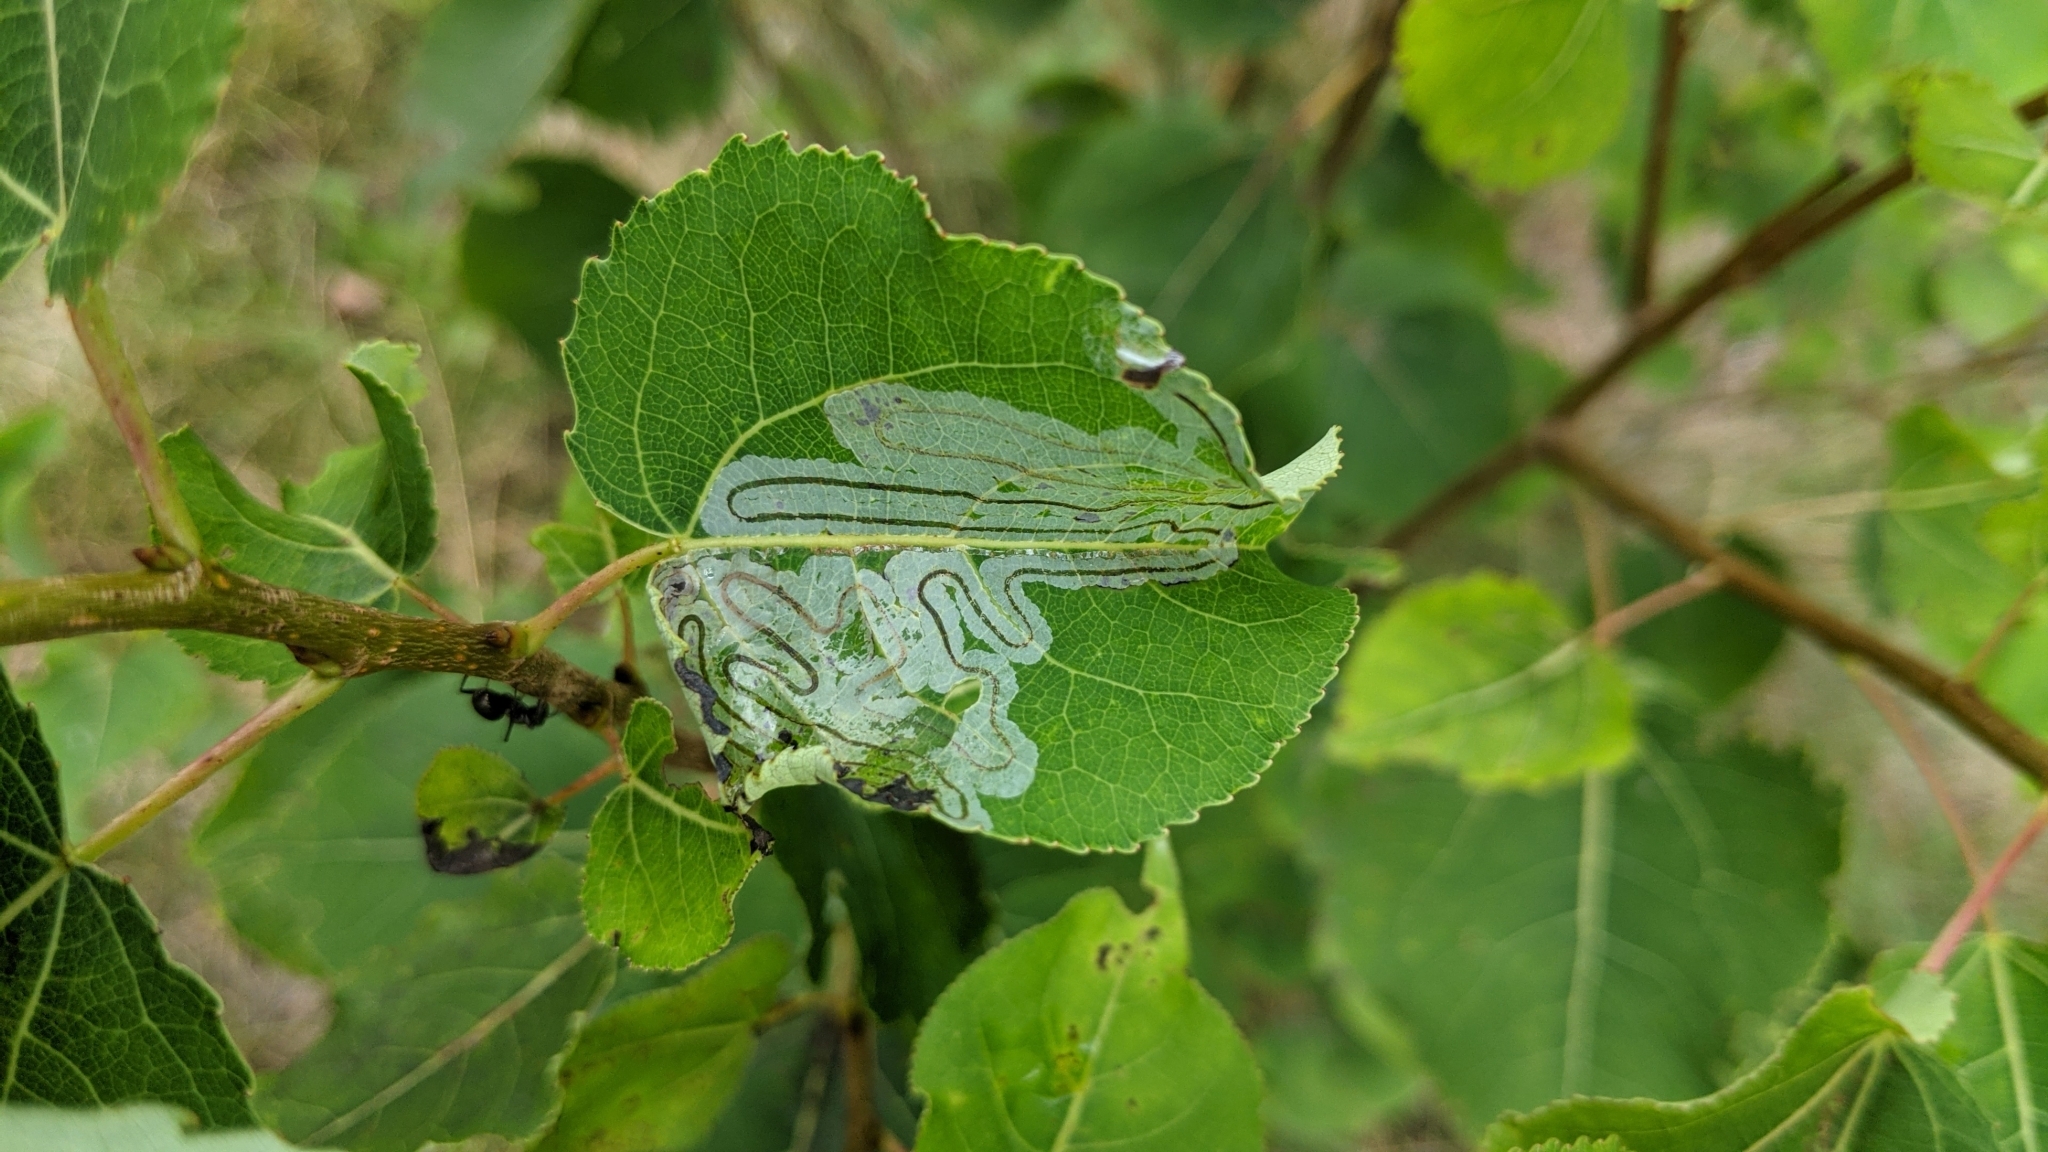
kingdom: Animalia
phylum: Arthropoda
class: Insecta
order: Lepidoptera
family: Gracillariidae
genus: Phyllocnistis
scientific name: Phyllocnistis populiella
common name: Aspen serpentine leafminer moth
